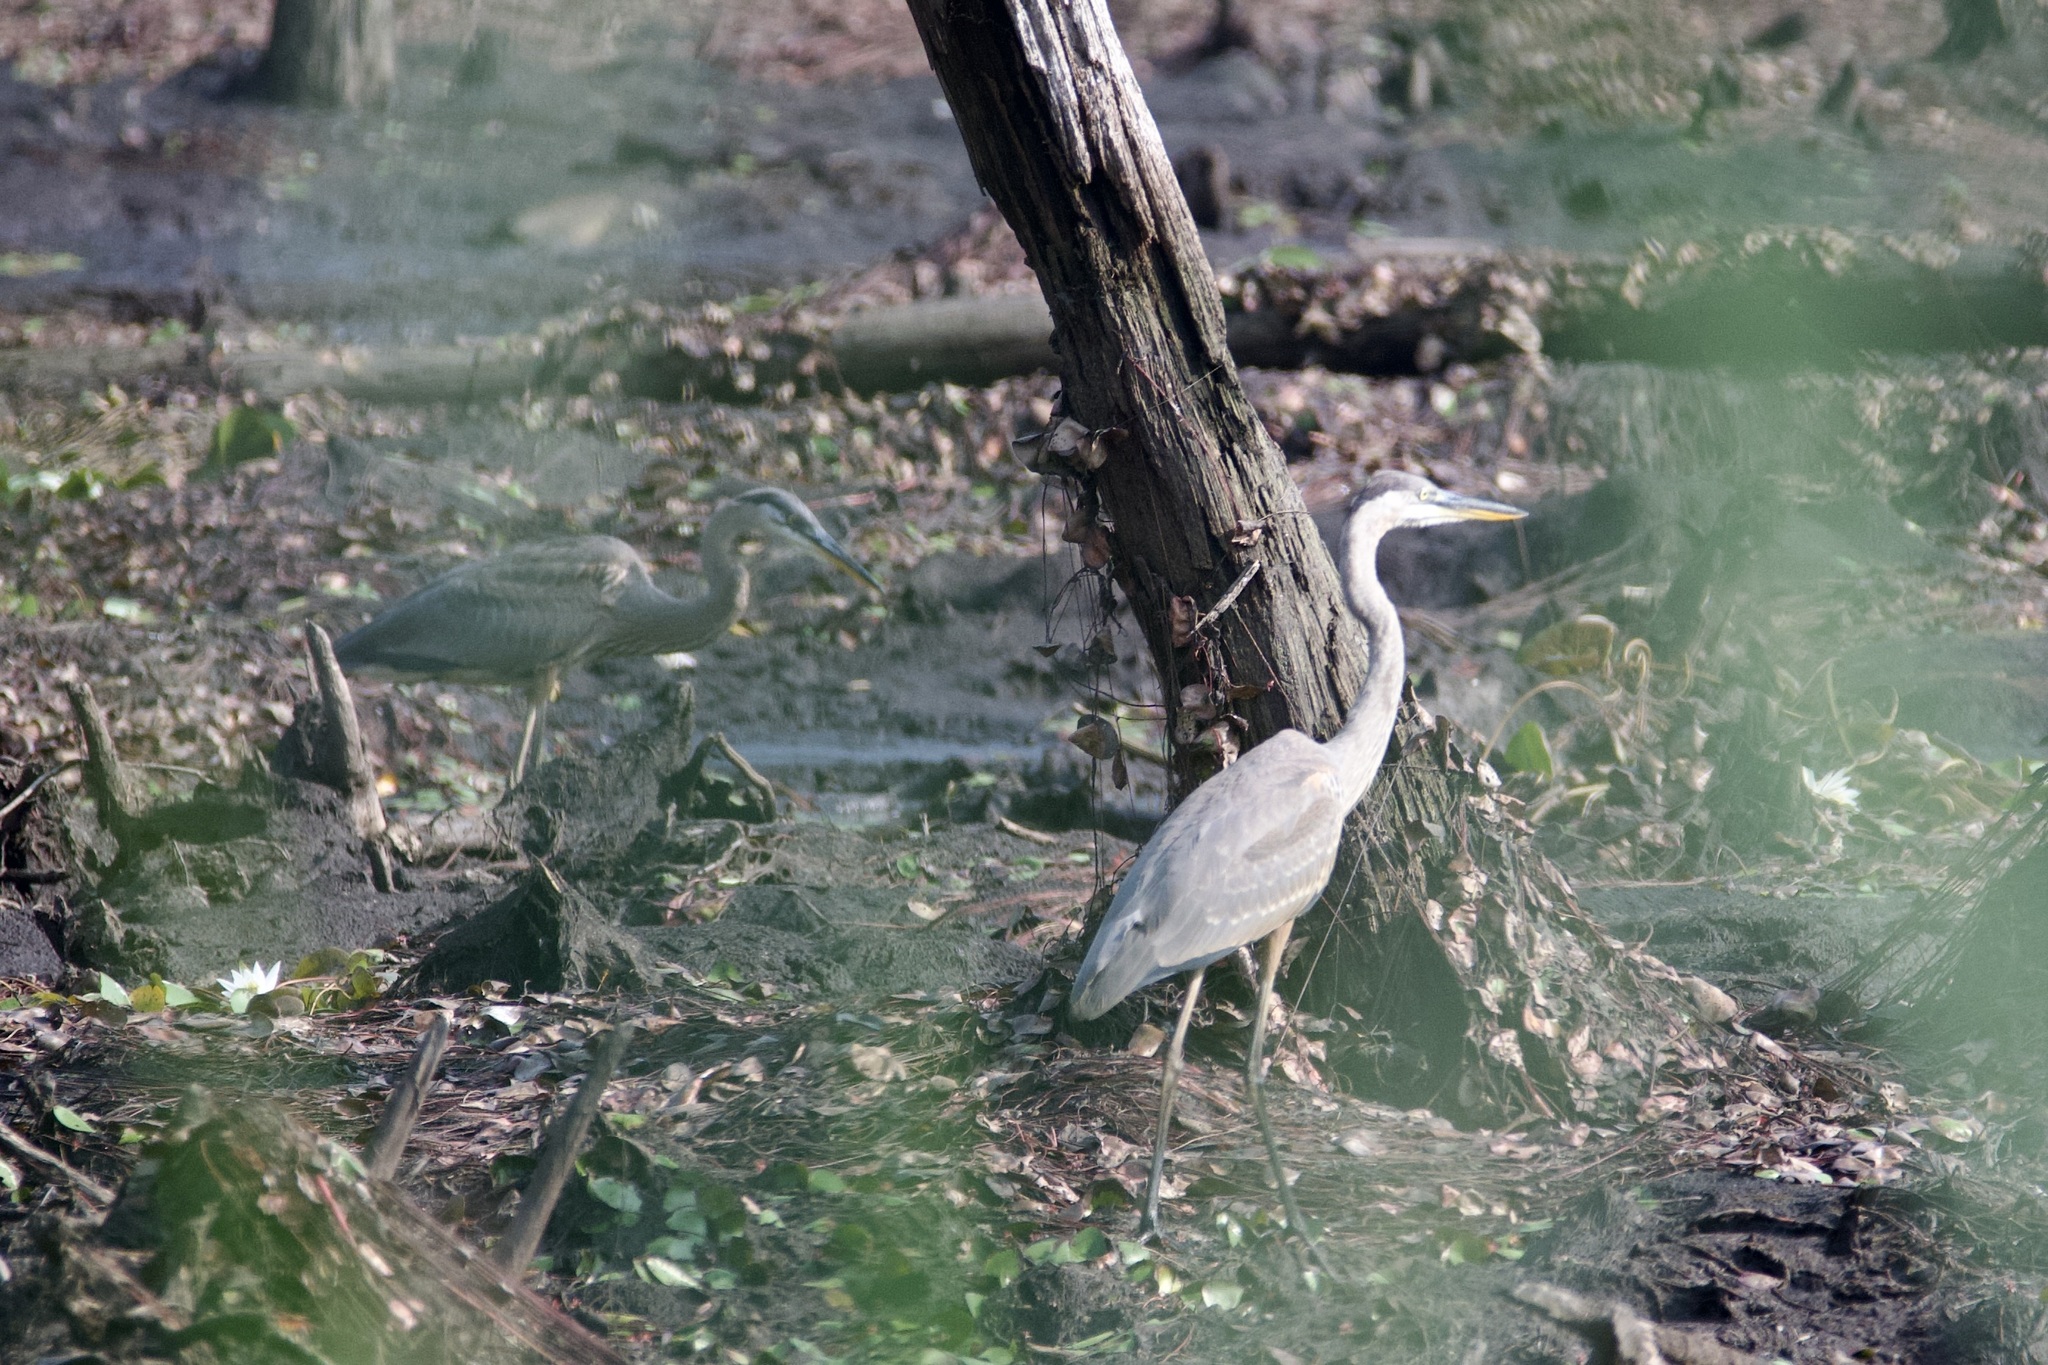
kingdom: Animalia
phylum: Chordata
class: Aves
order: Pelecaniformes
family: Ardeidae
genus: Ardea
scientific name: Ardea herodias
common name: Great blue heron
